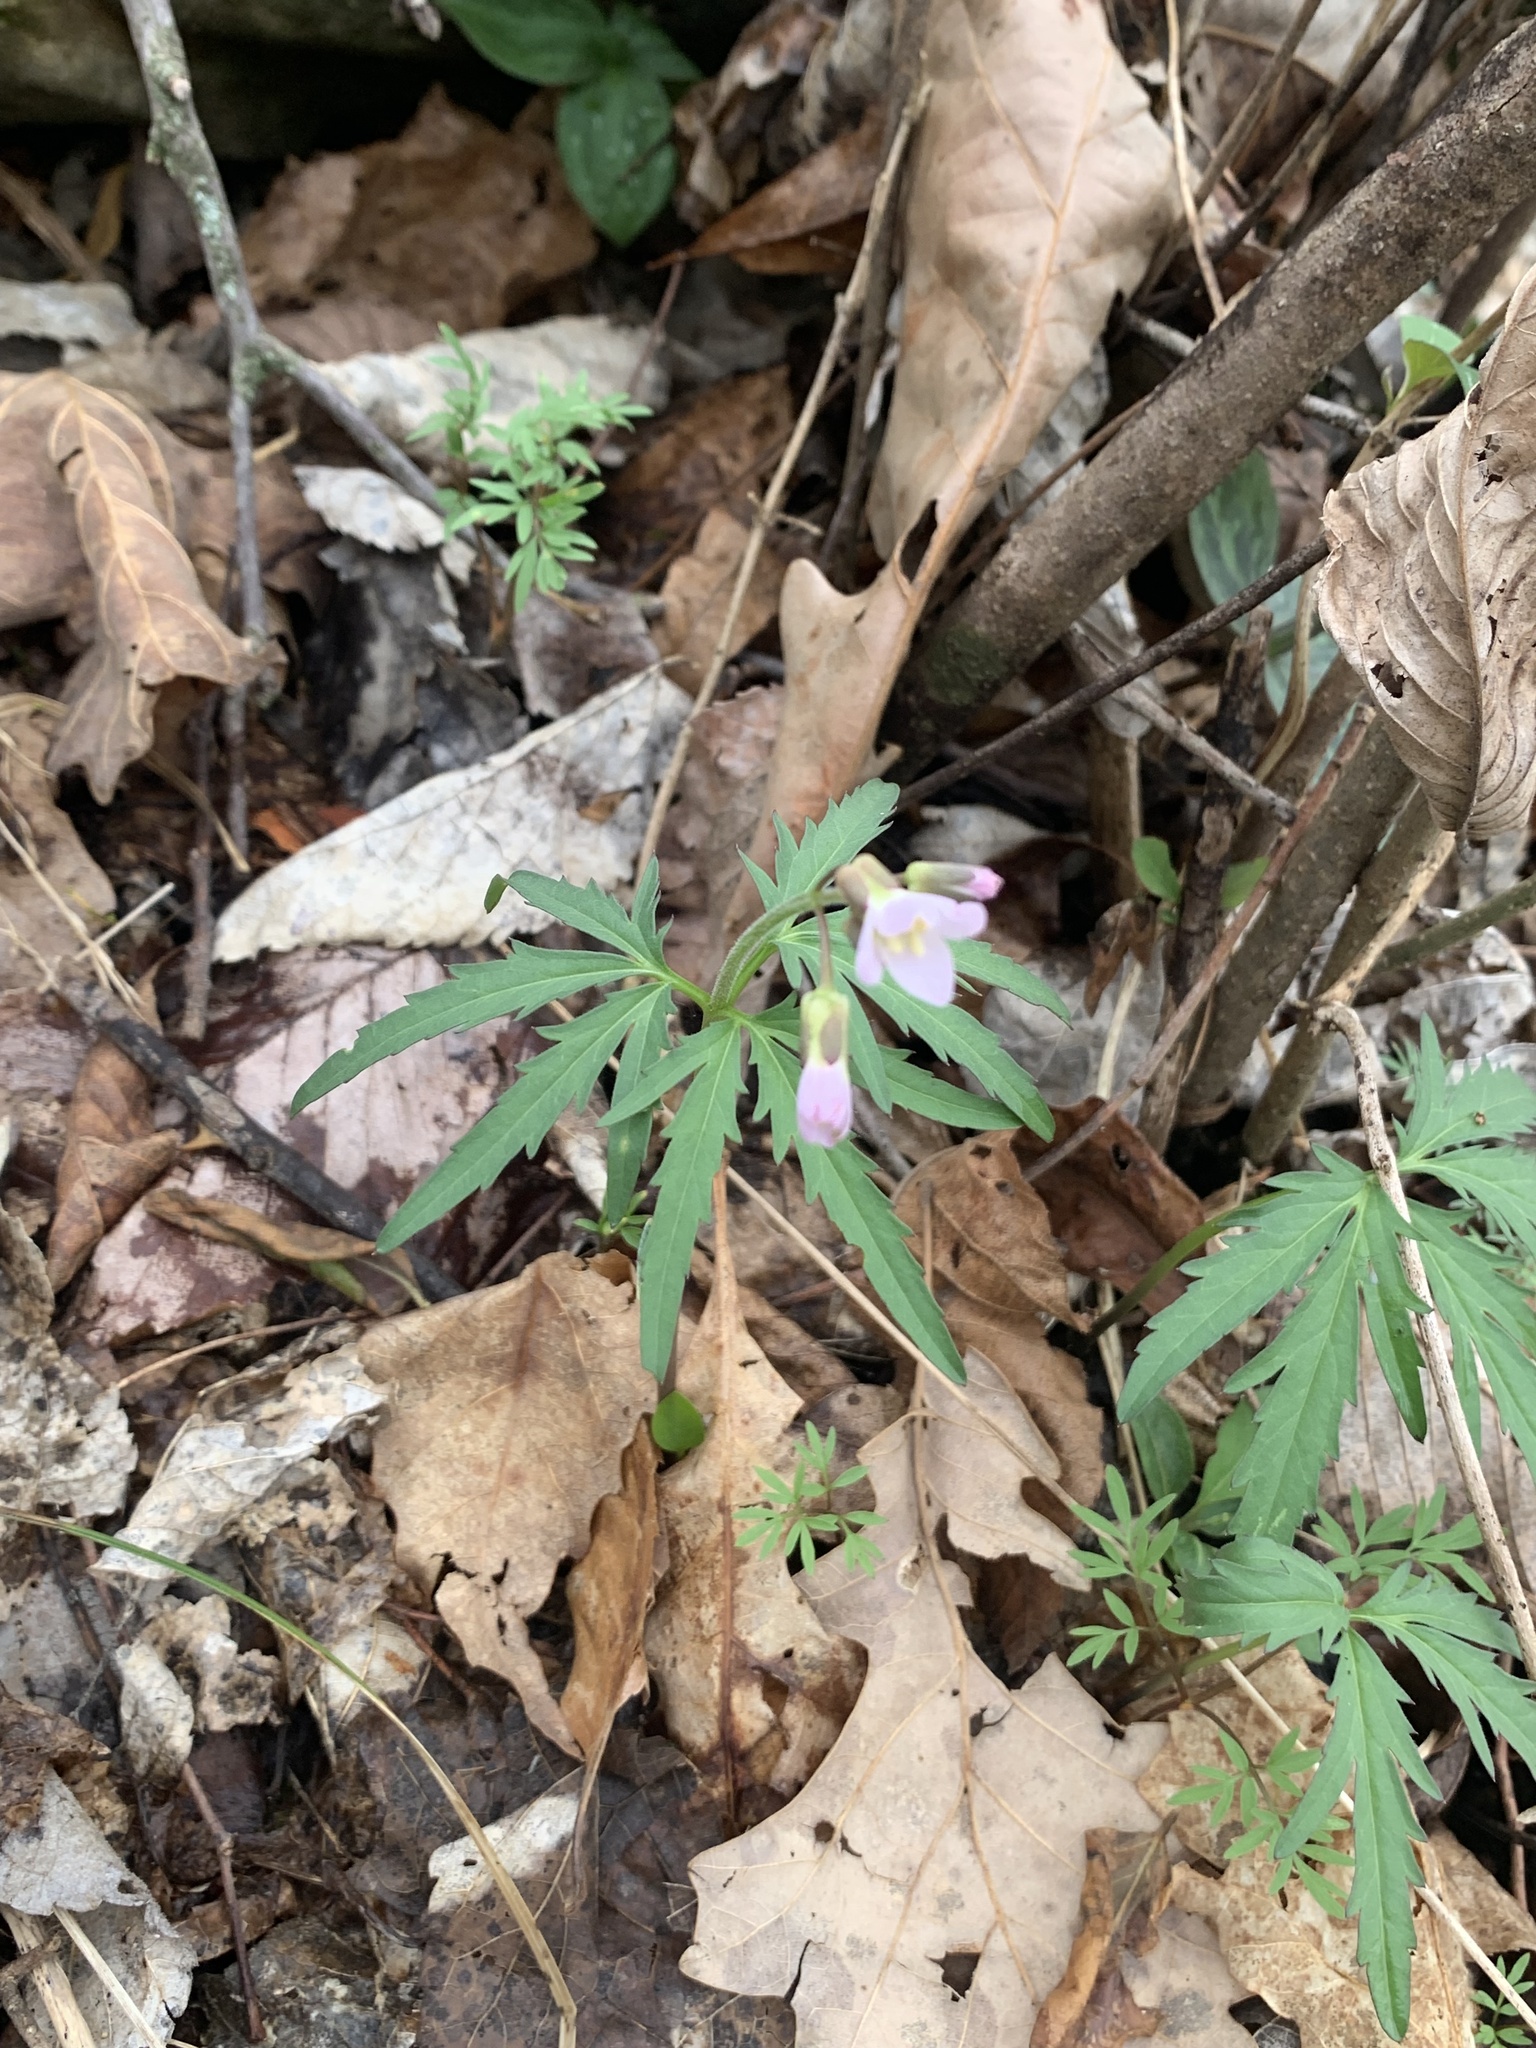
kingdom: Plantae
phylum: Tracheophyta
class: Magnoliopsida
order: Brassicales
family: Brassicaceae
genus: Cardamine
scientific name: Cardamine concatenata
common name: Cut-leaf toothcup
